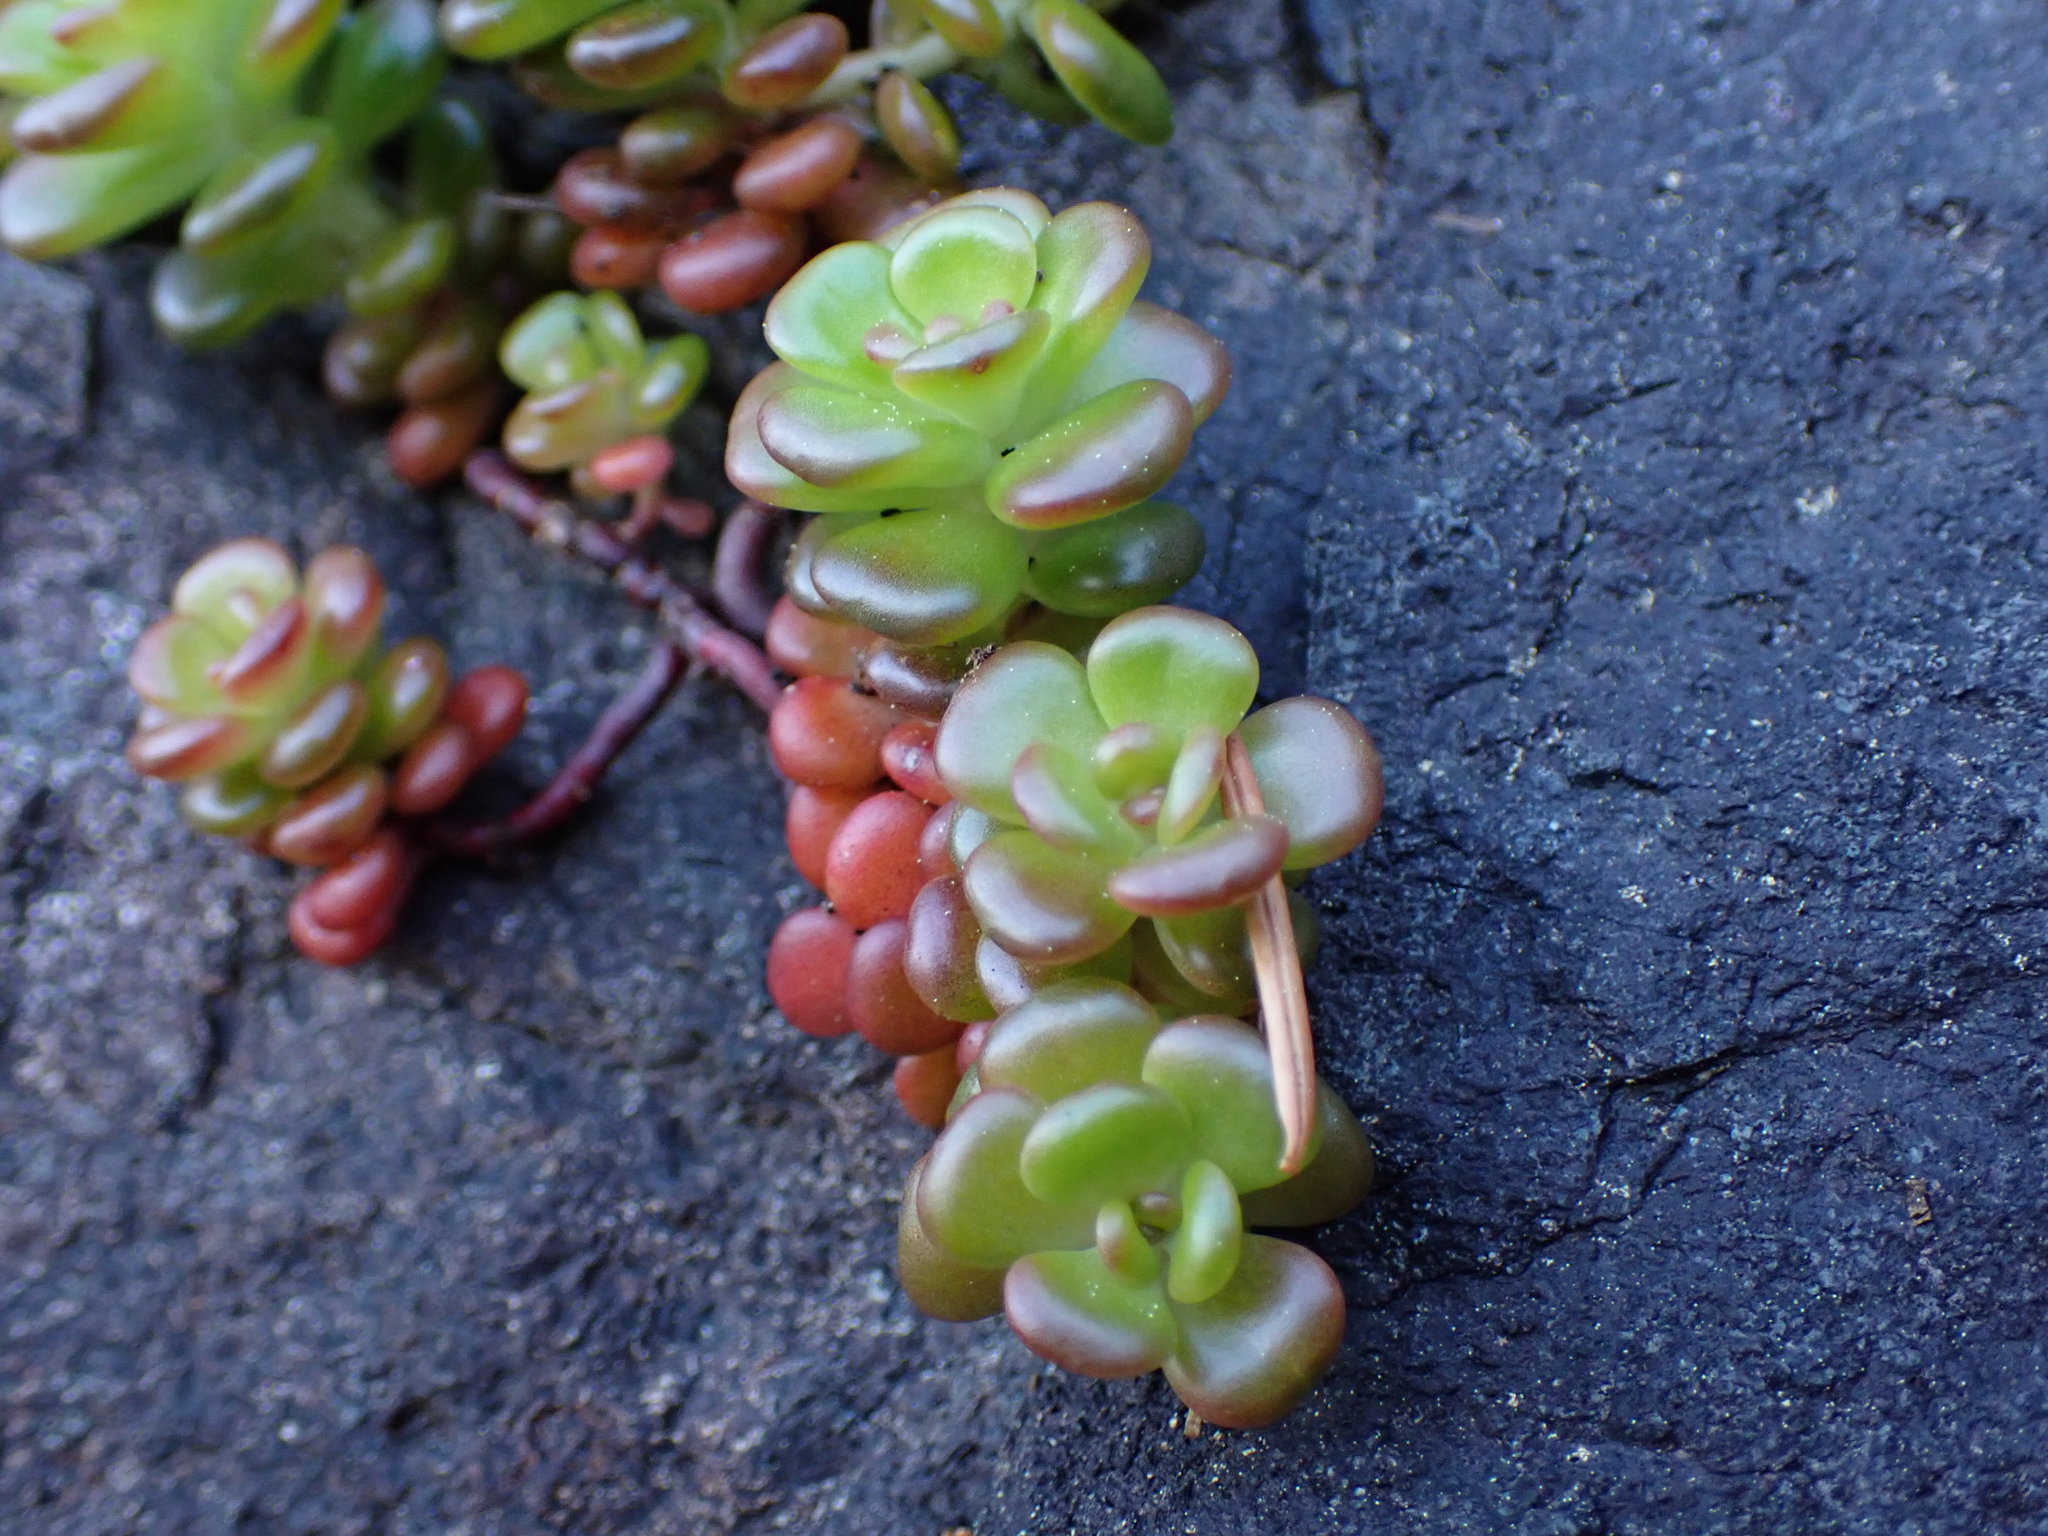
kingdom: Plantae
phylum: Tracheophyta
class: Magnoliopsida
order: Saxifragales
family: Crassulaceae
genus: Sedum
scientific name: Sedum oreganum
